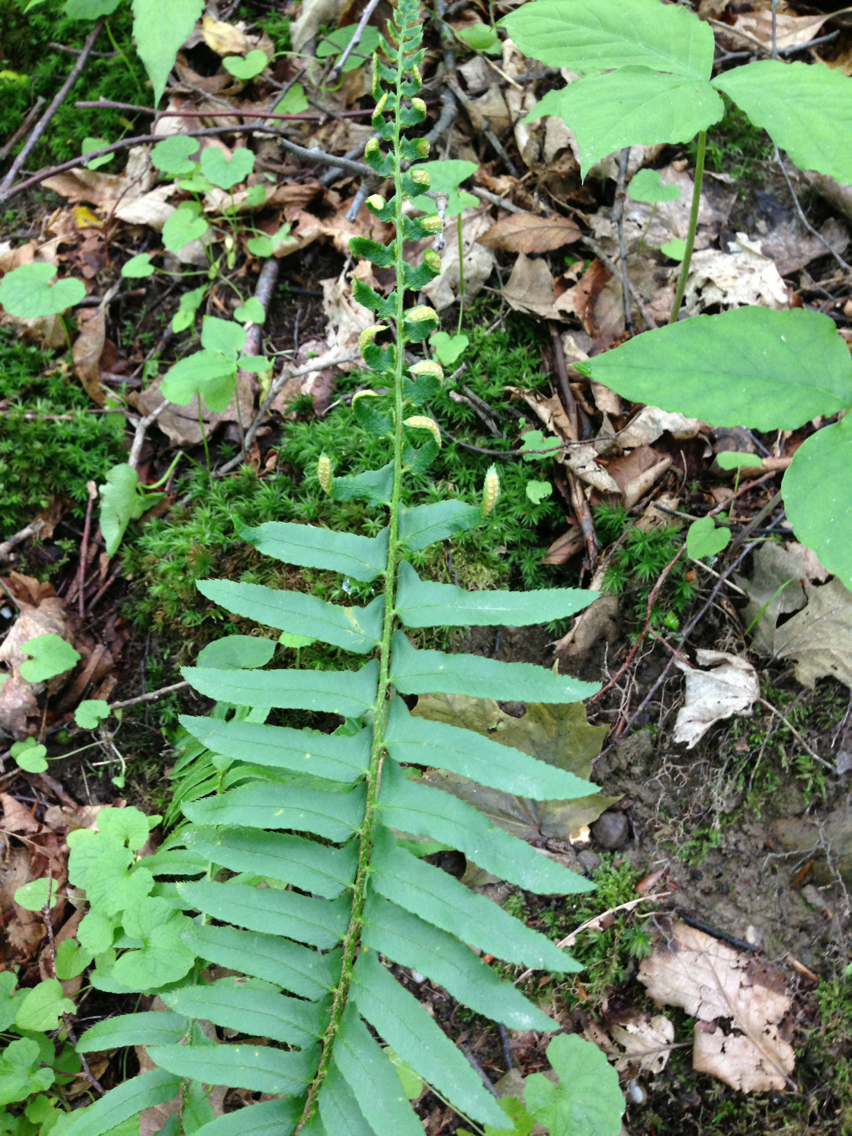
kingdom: Plantae
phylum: Tracheophyta
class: Polypodiopsida
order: Polypodiales
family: Dryopteridaceae
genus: Polystichum
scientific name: Polystichum acrostichoides
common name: Christmas fern
